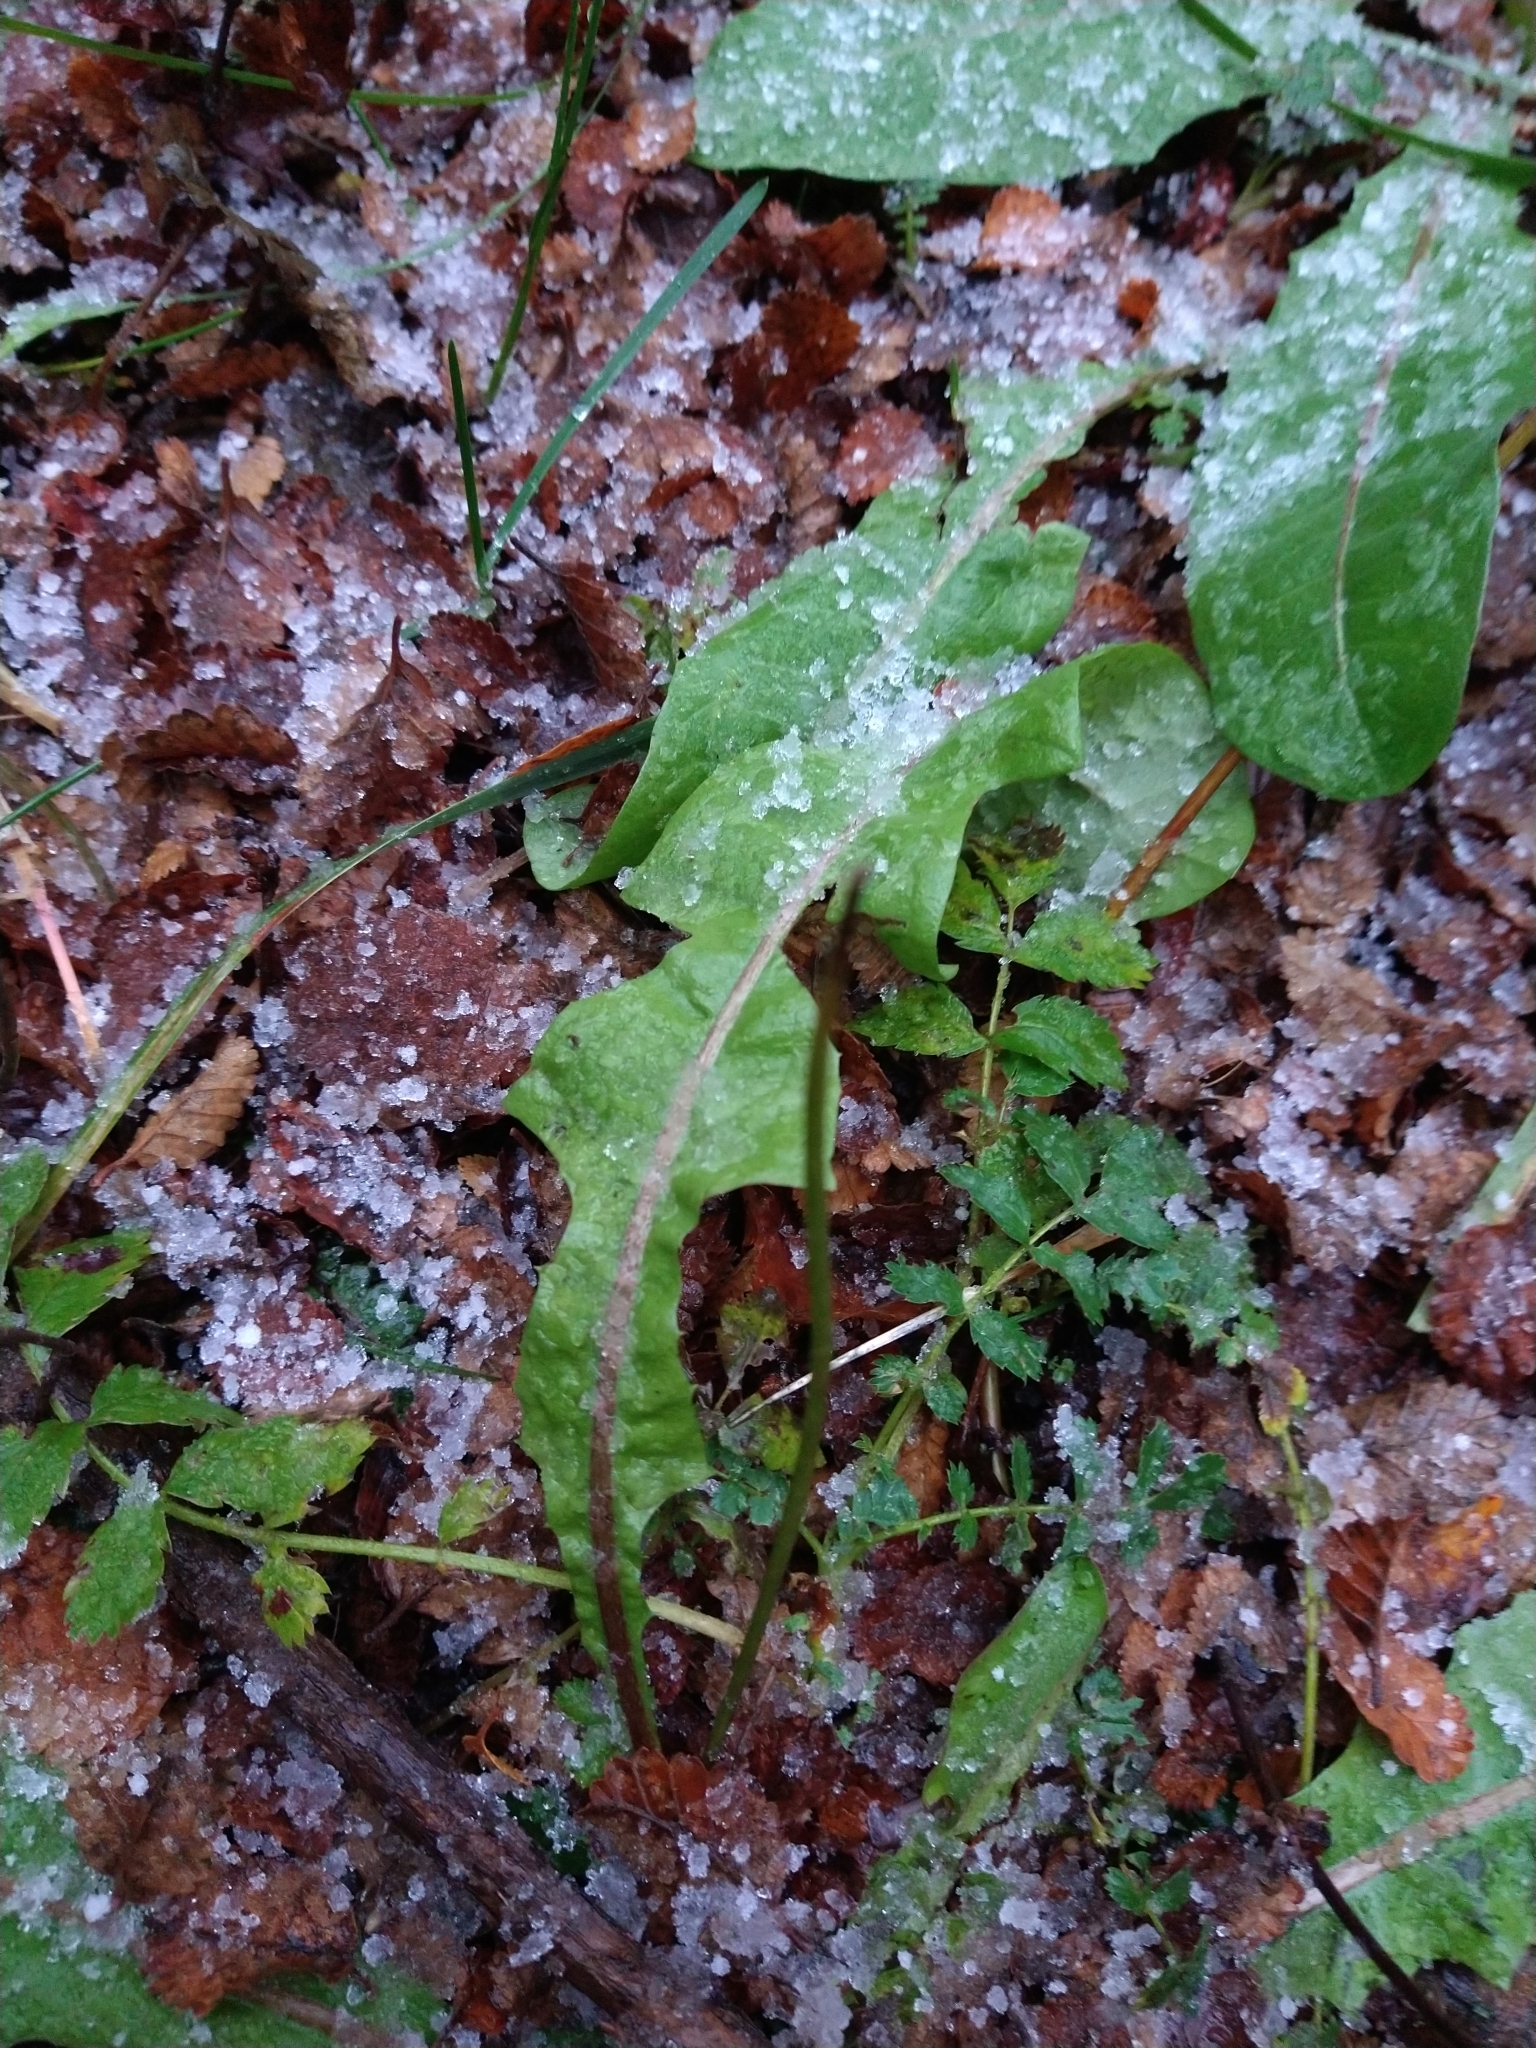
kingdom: Plantae
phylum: Tracheophyta
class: Magnoliopsida
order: Asterales
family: Asteraceae
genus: Taraxacum
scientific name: Taraxacum officinale
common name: Common dandelion
